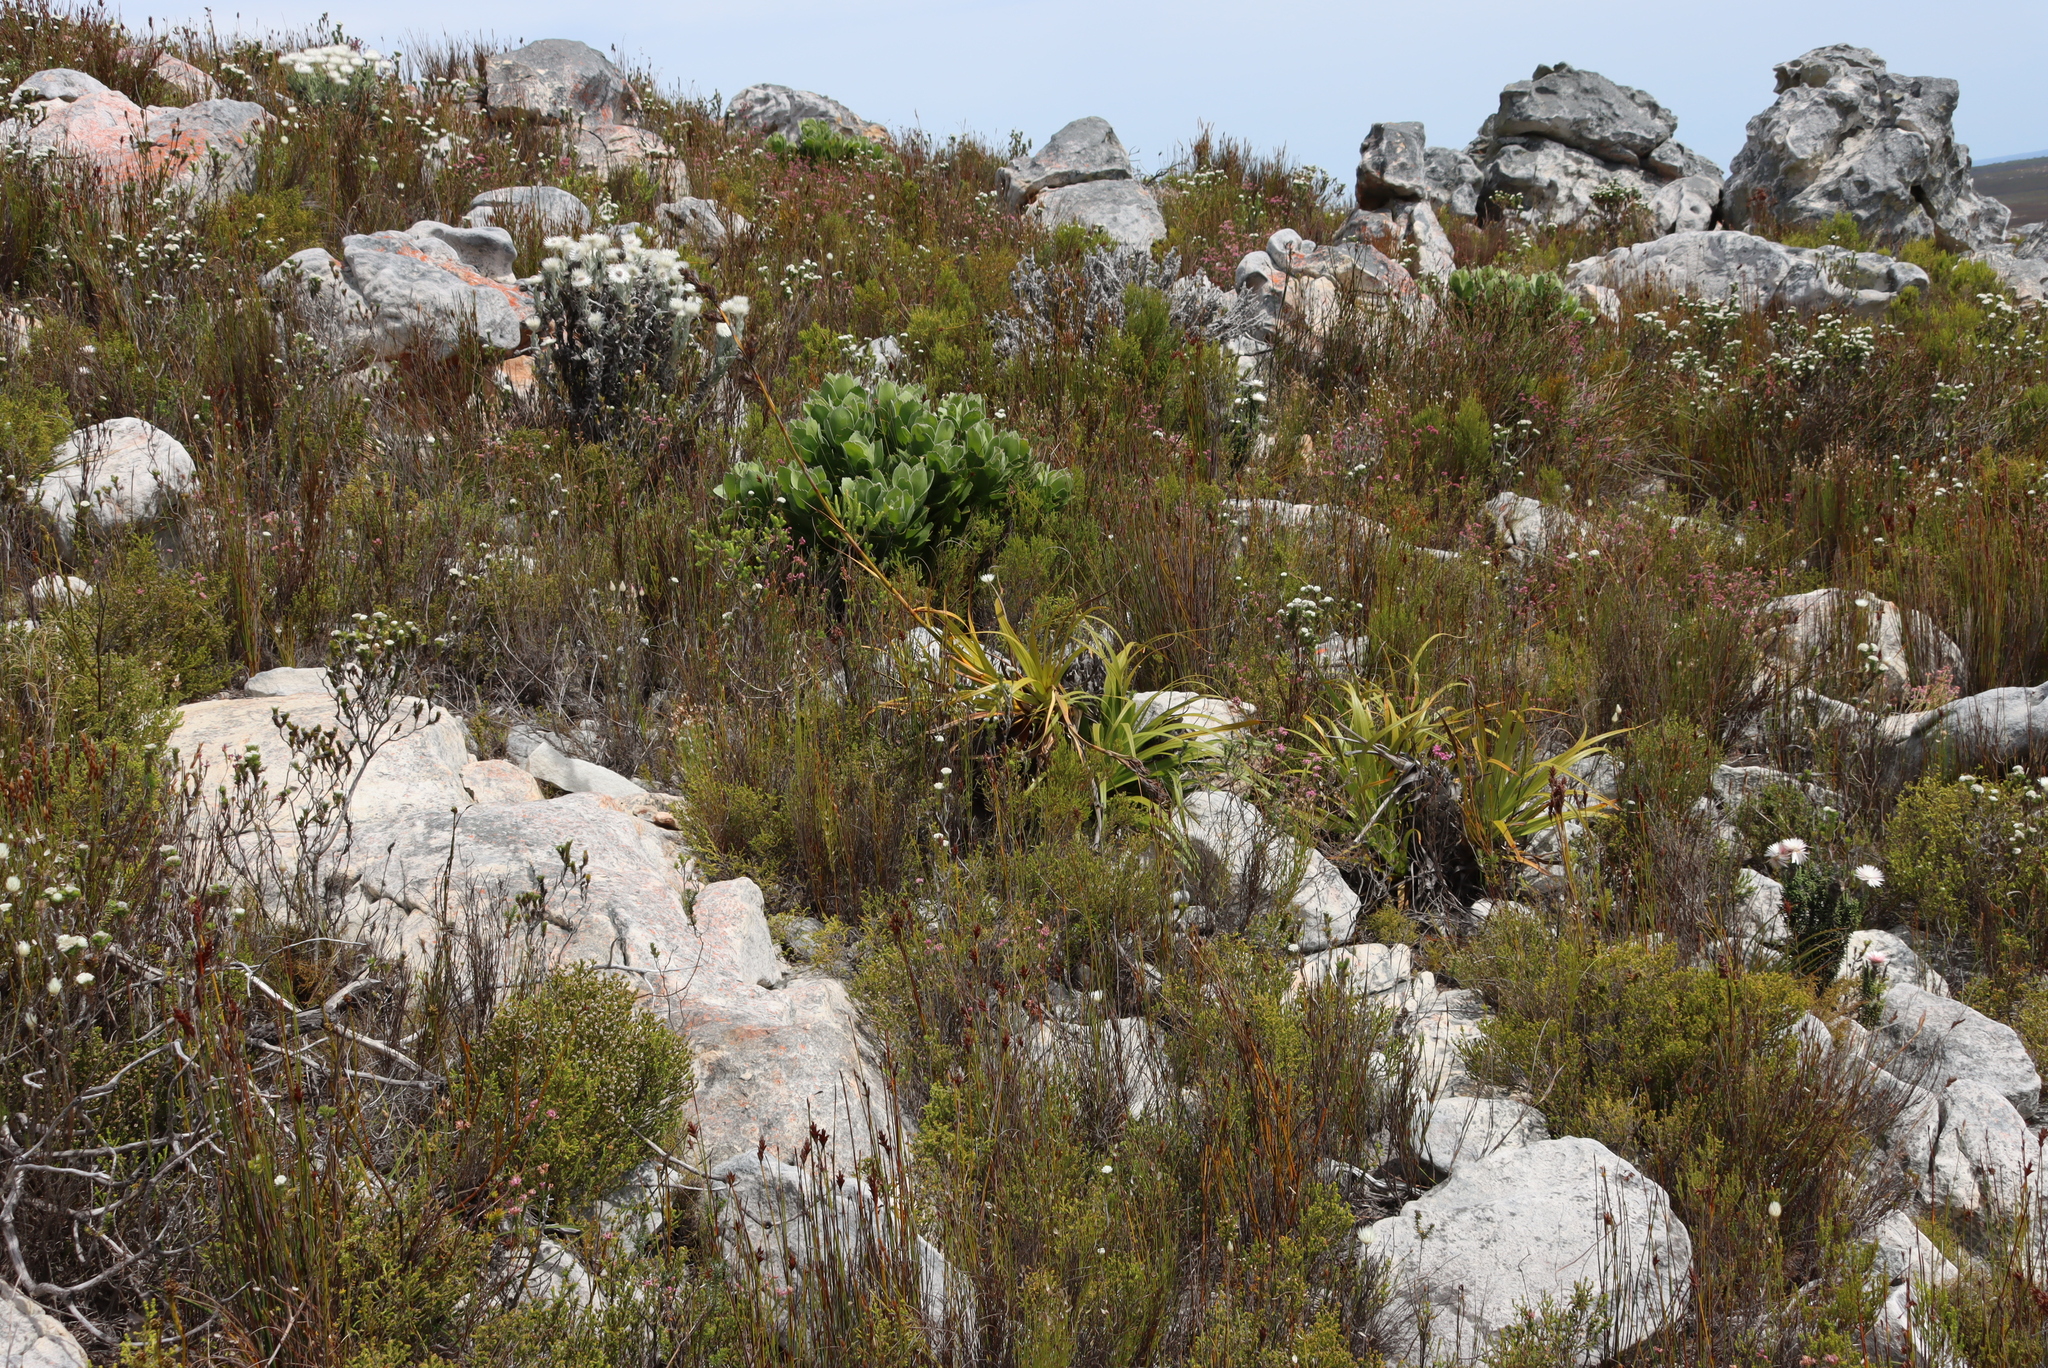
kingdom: Plantae
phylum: Tracheophyta
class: Liliopsida
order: Poales
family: Cyperaceae
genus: Tetraria
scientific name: Tetraria thermalis
